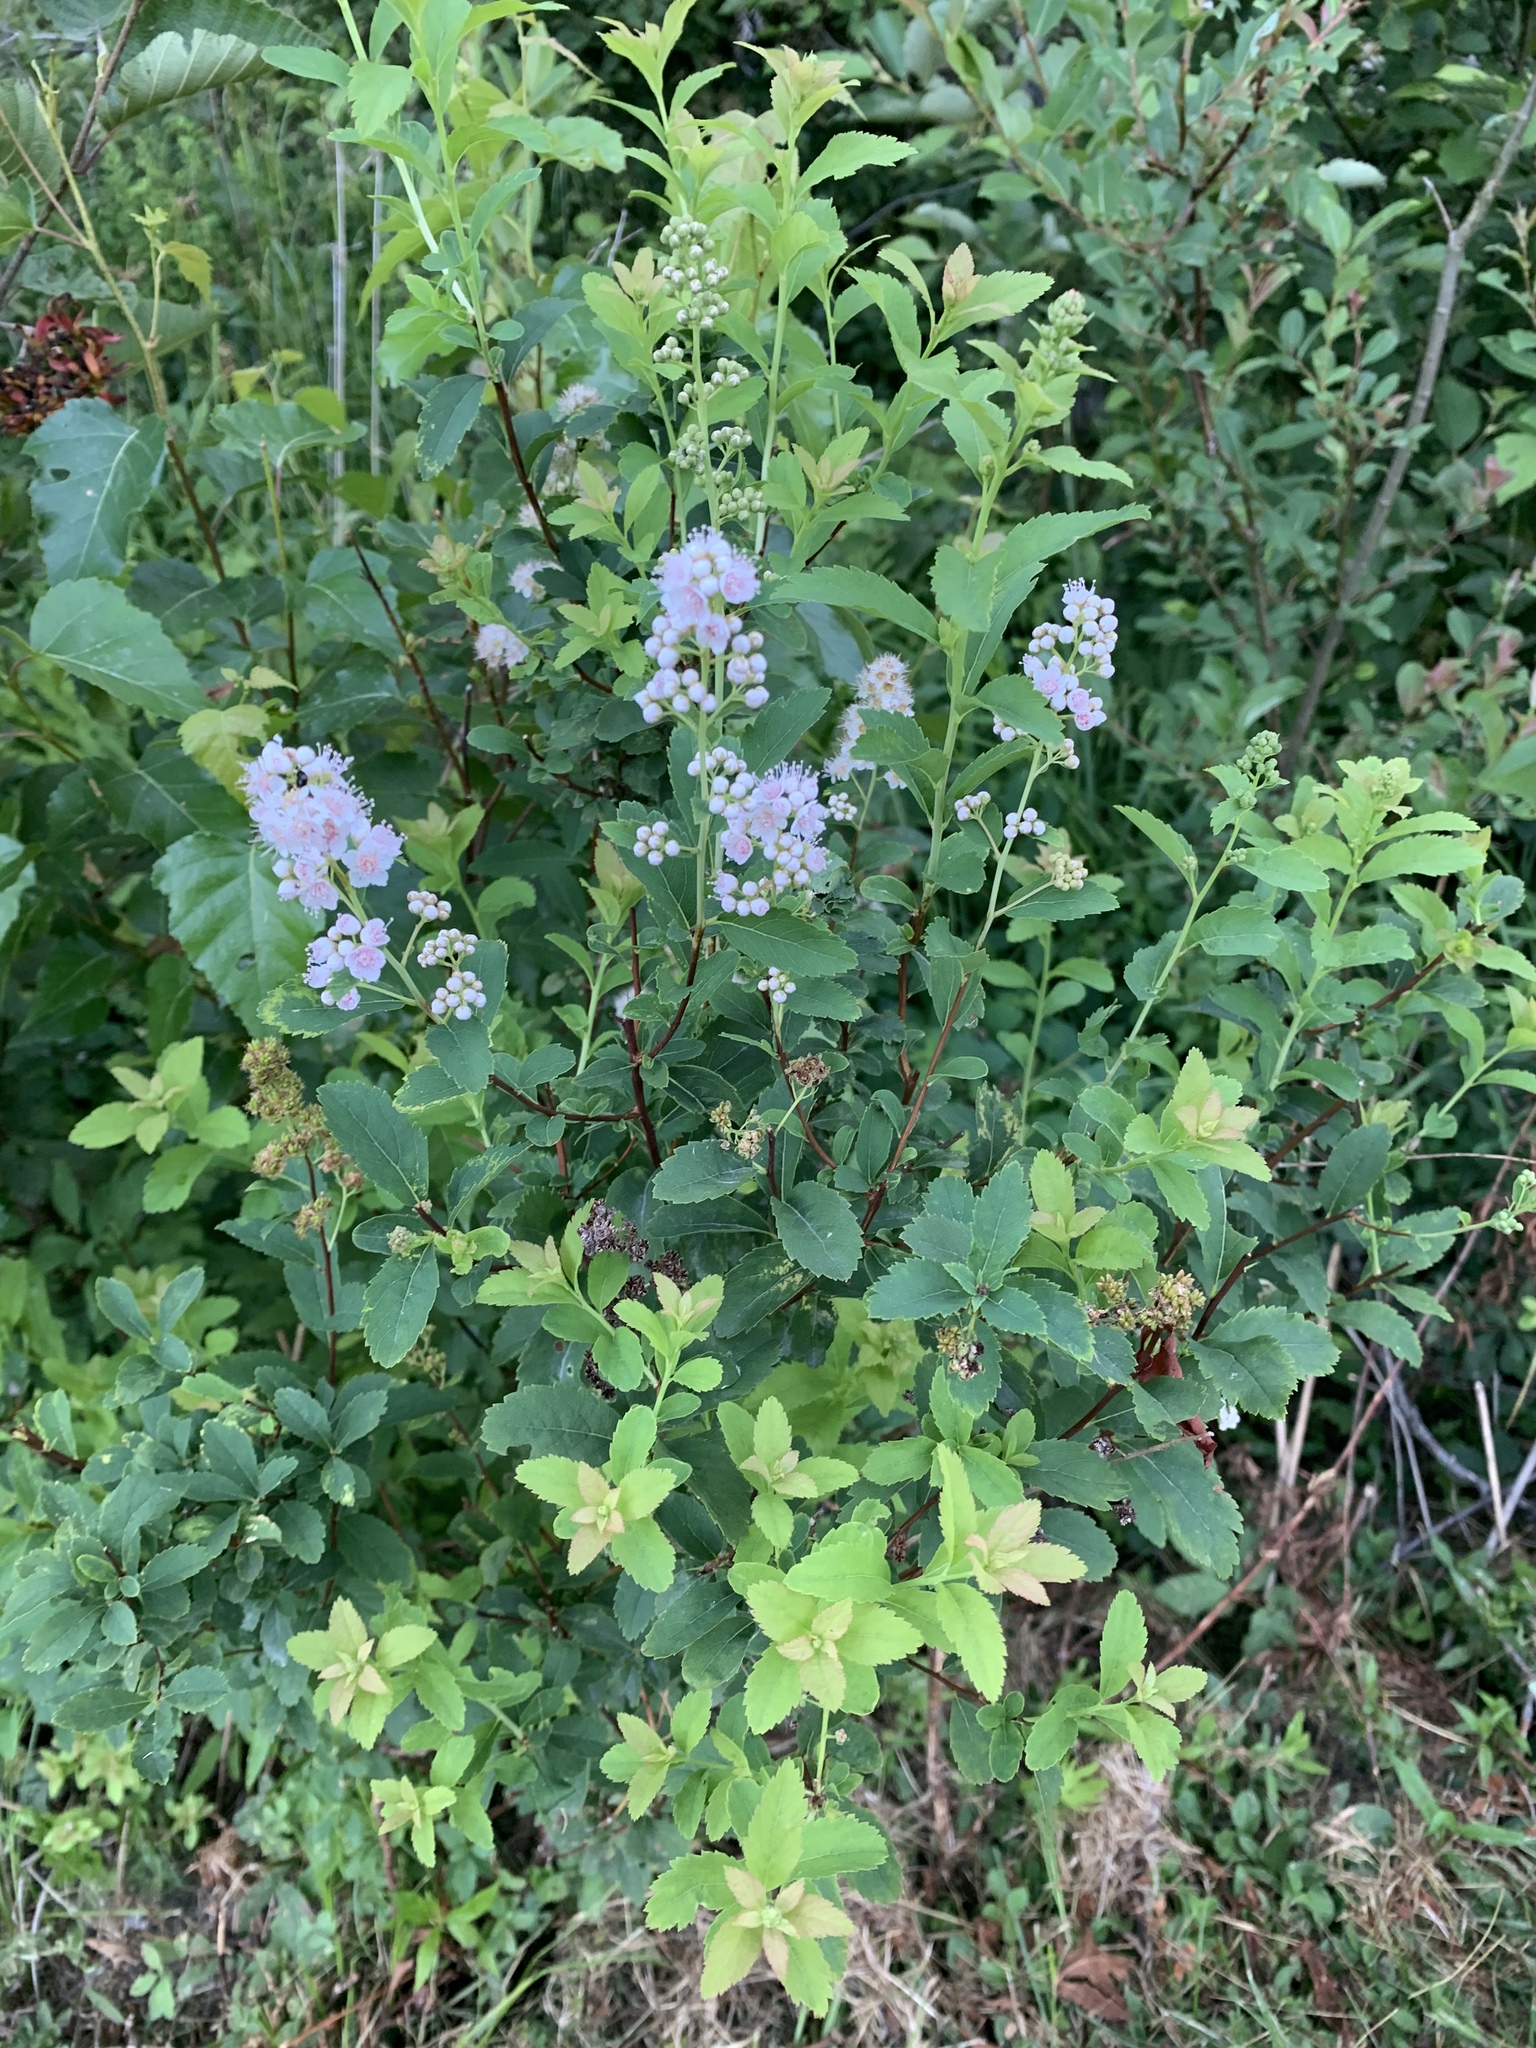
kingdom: Plantae
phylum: Tracheophyta
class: Magnoliopsida
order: Rosales
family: Rosaceae
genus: Spiraea
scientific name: Spiraea alba
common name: Pale bridewort
